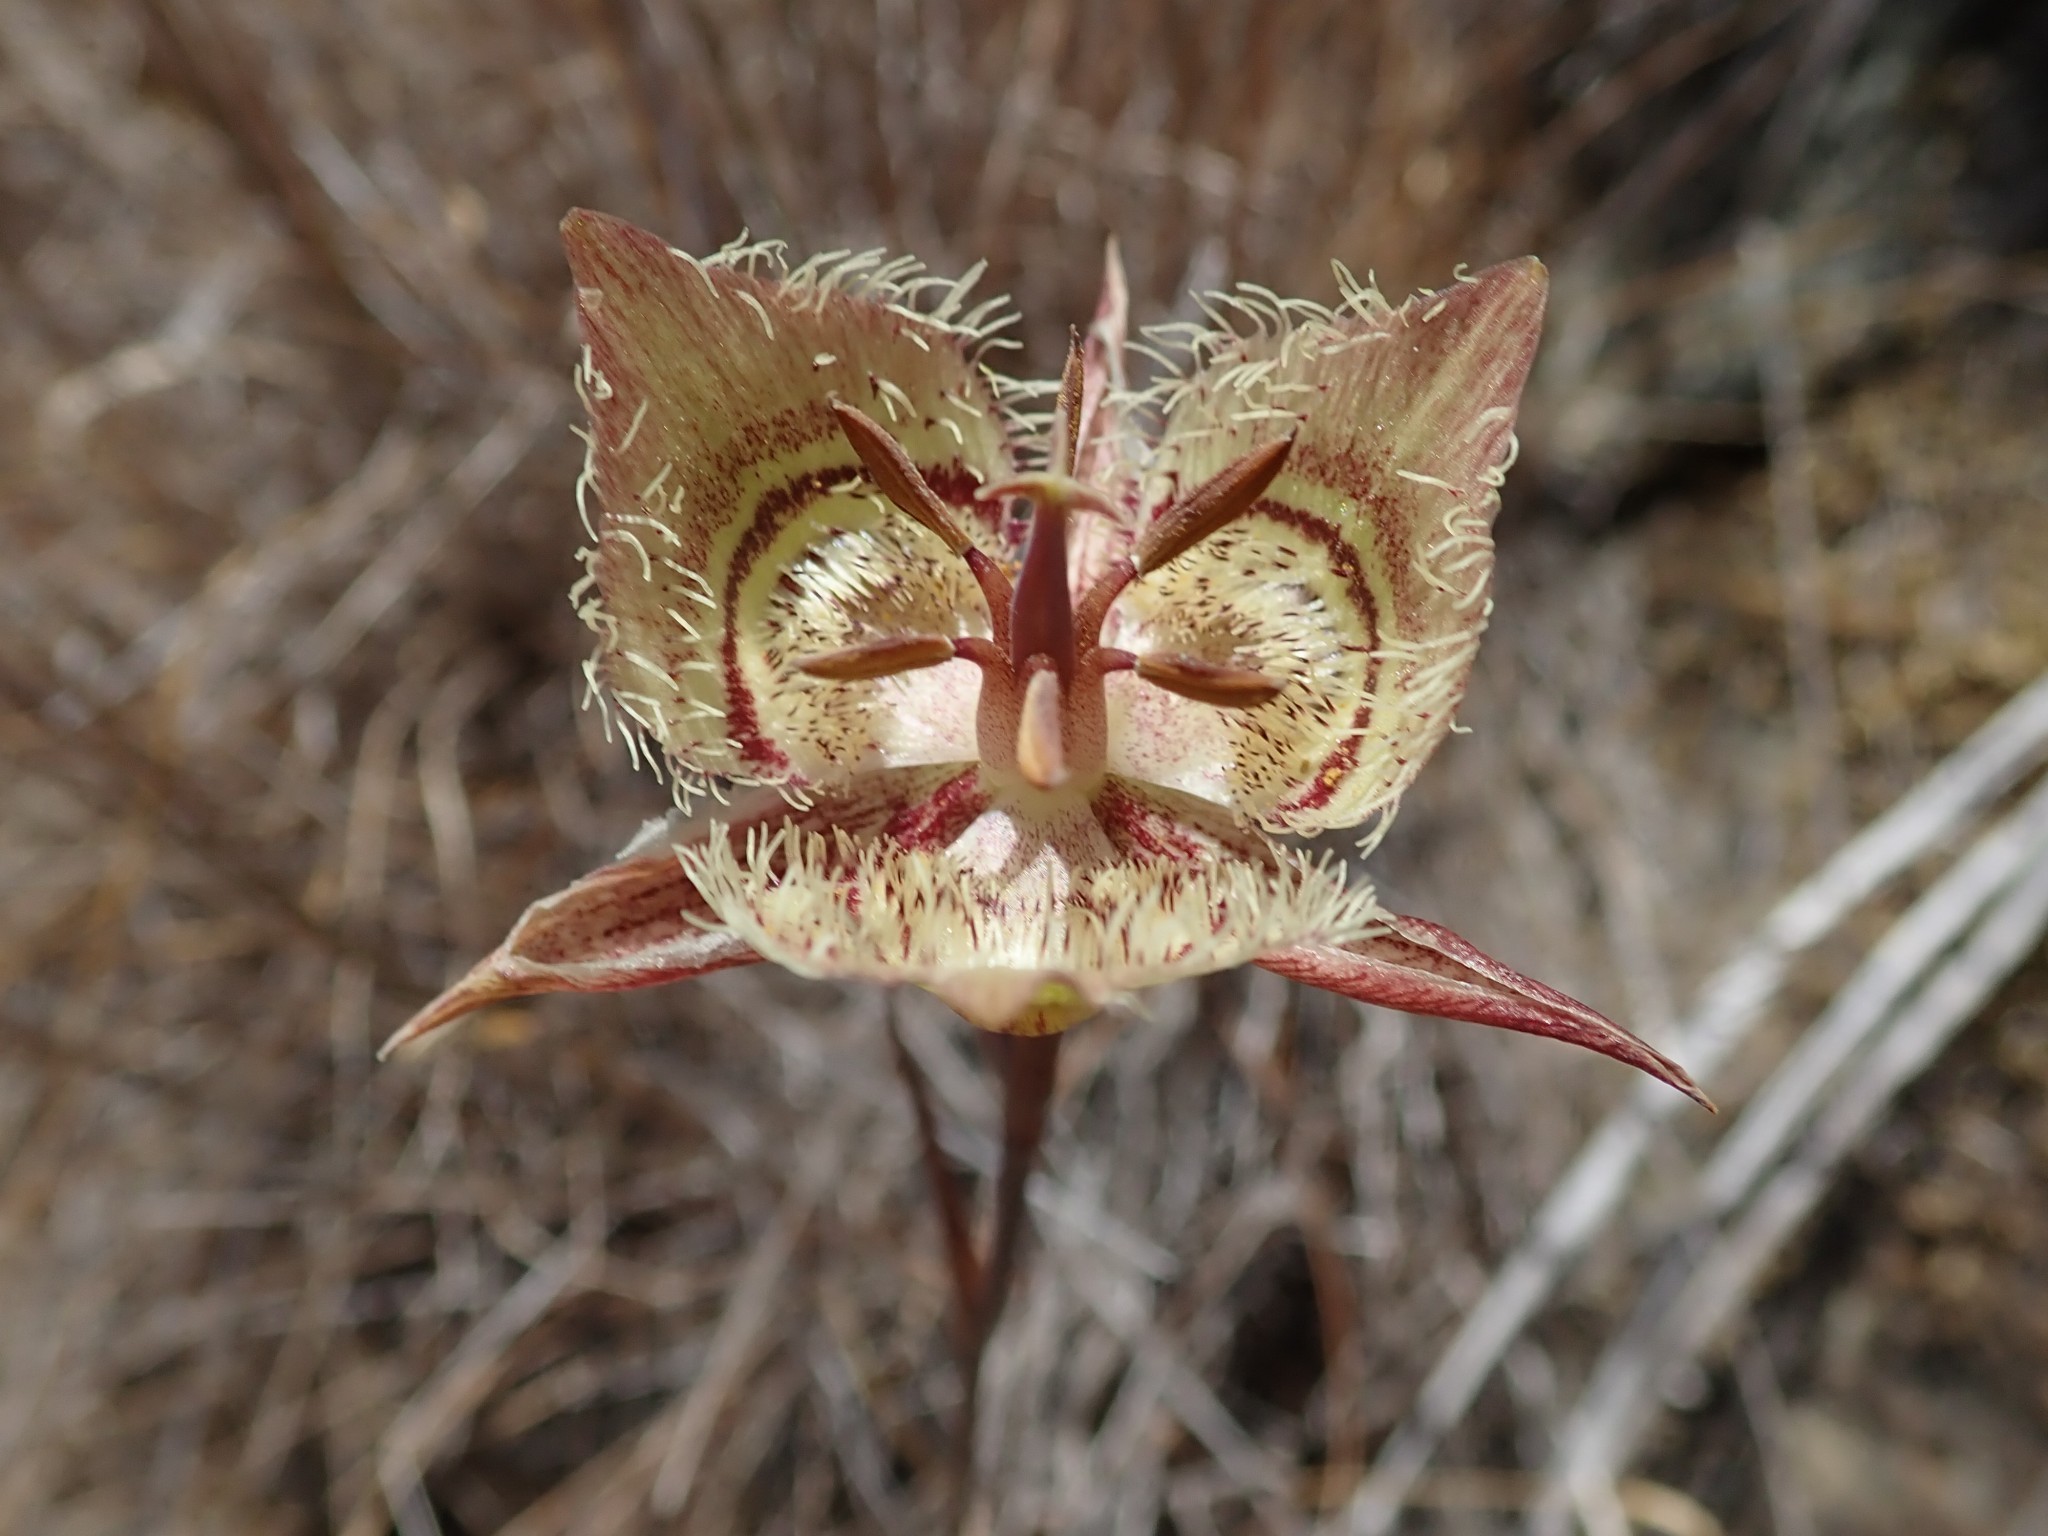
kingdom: Plantae
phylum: Tracheophyta
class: Liliopsida
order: Liliales
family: Liliaceae
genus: Calochortus
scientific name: Calochortus tiburonensis
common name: Tiburon mariposa-lily
